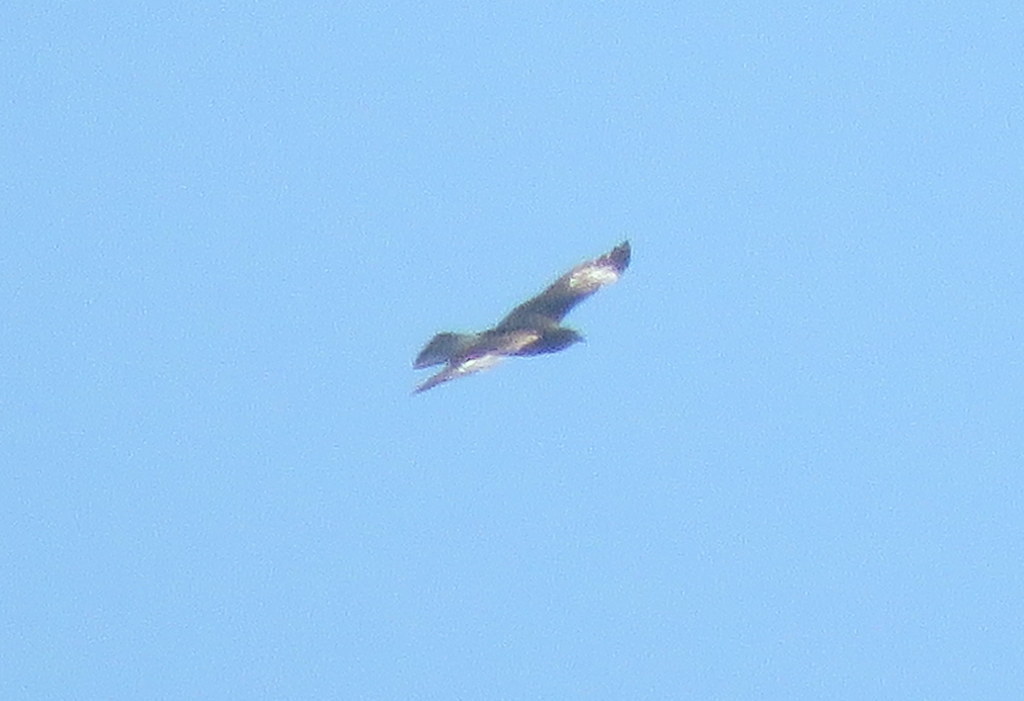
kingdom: Animalia
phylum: Chordata
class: Aves
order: Falconiformes
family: Falconidae
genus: Daptrius
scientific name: Daptrius
